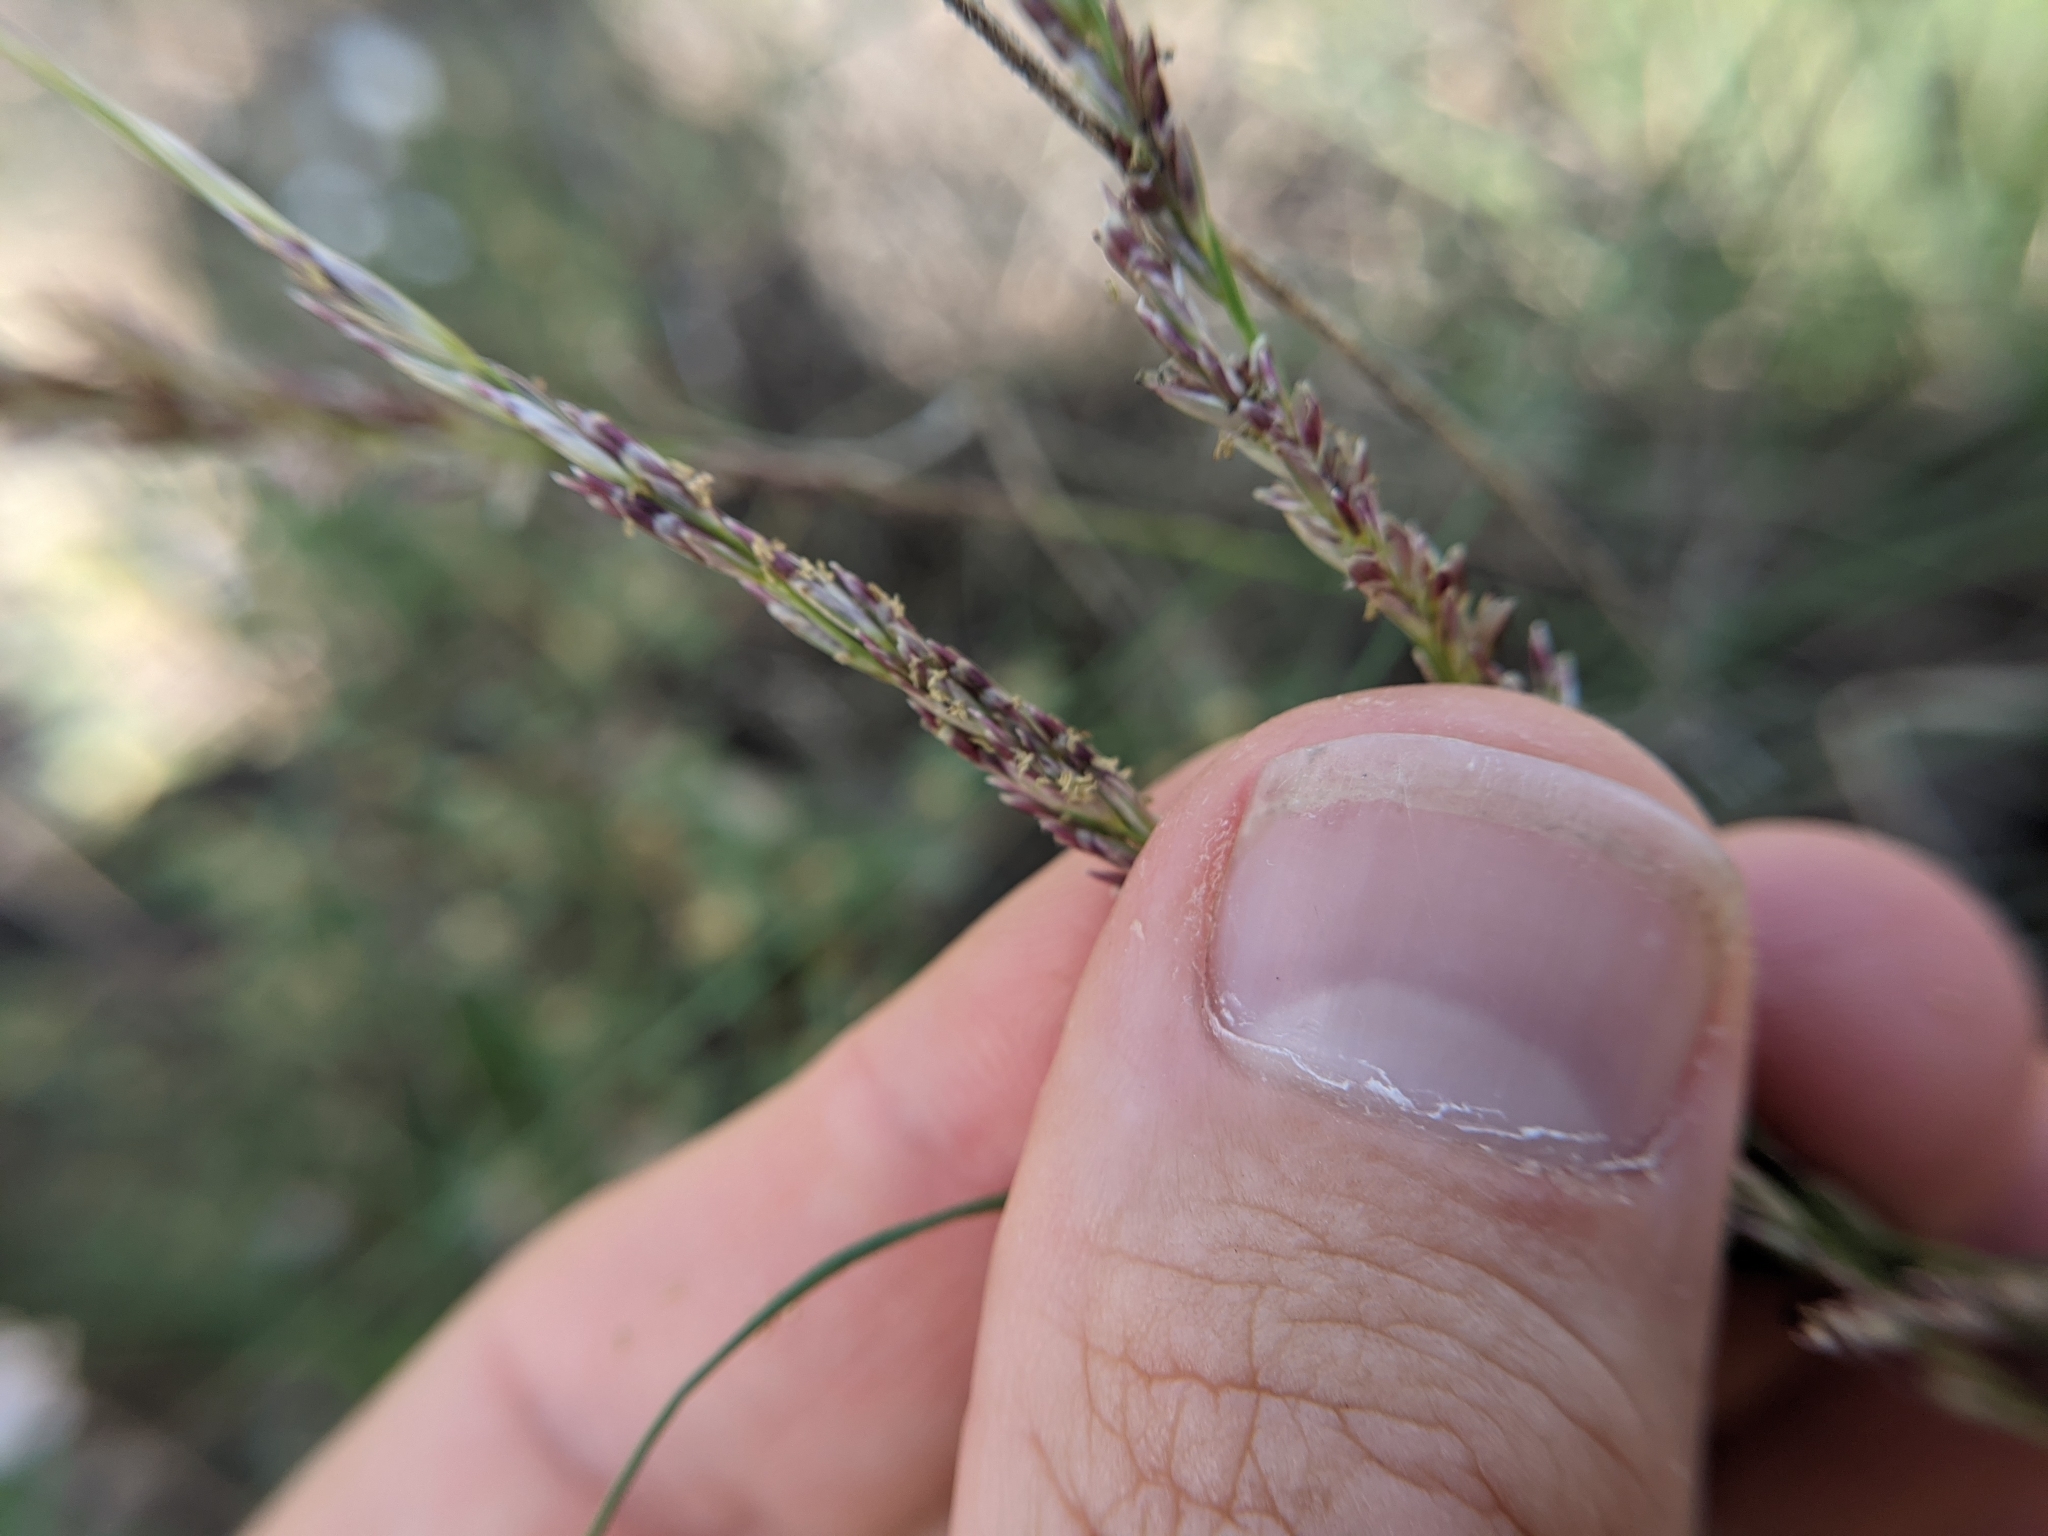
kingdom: Plantae
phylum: Tracheophyta
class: Liliopsida
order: Poales
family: Poaceae
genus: Tridentopsis
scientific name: Tridentopsis mutica
